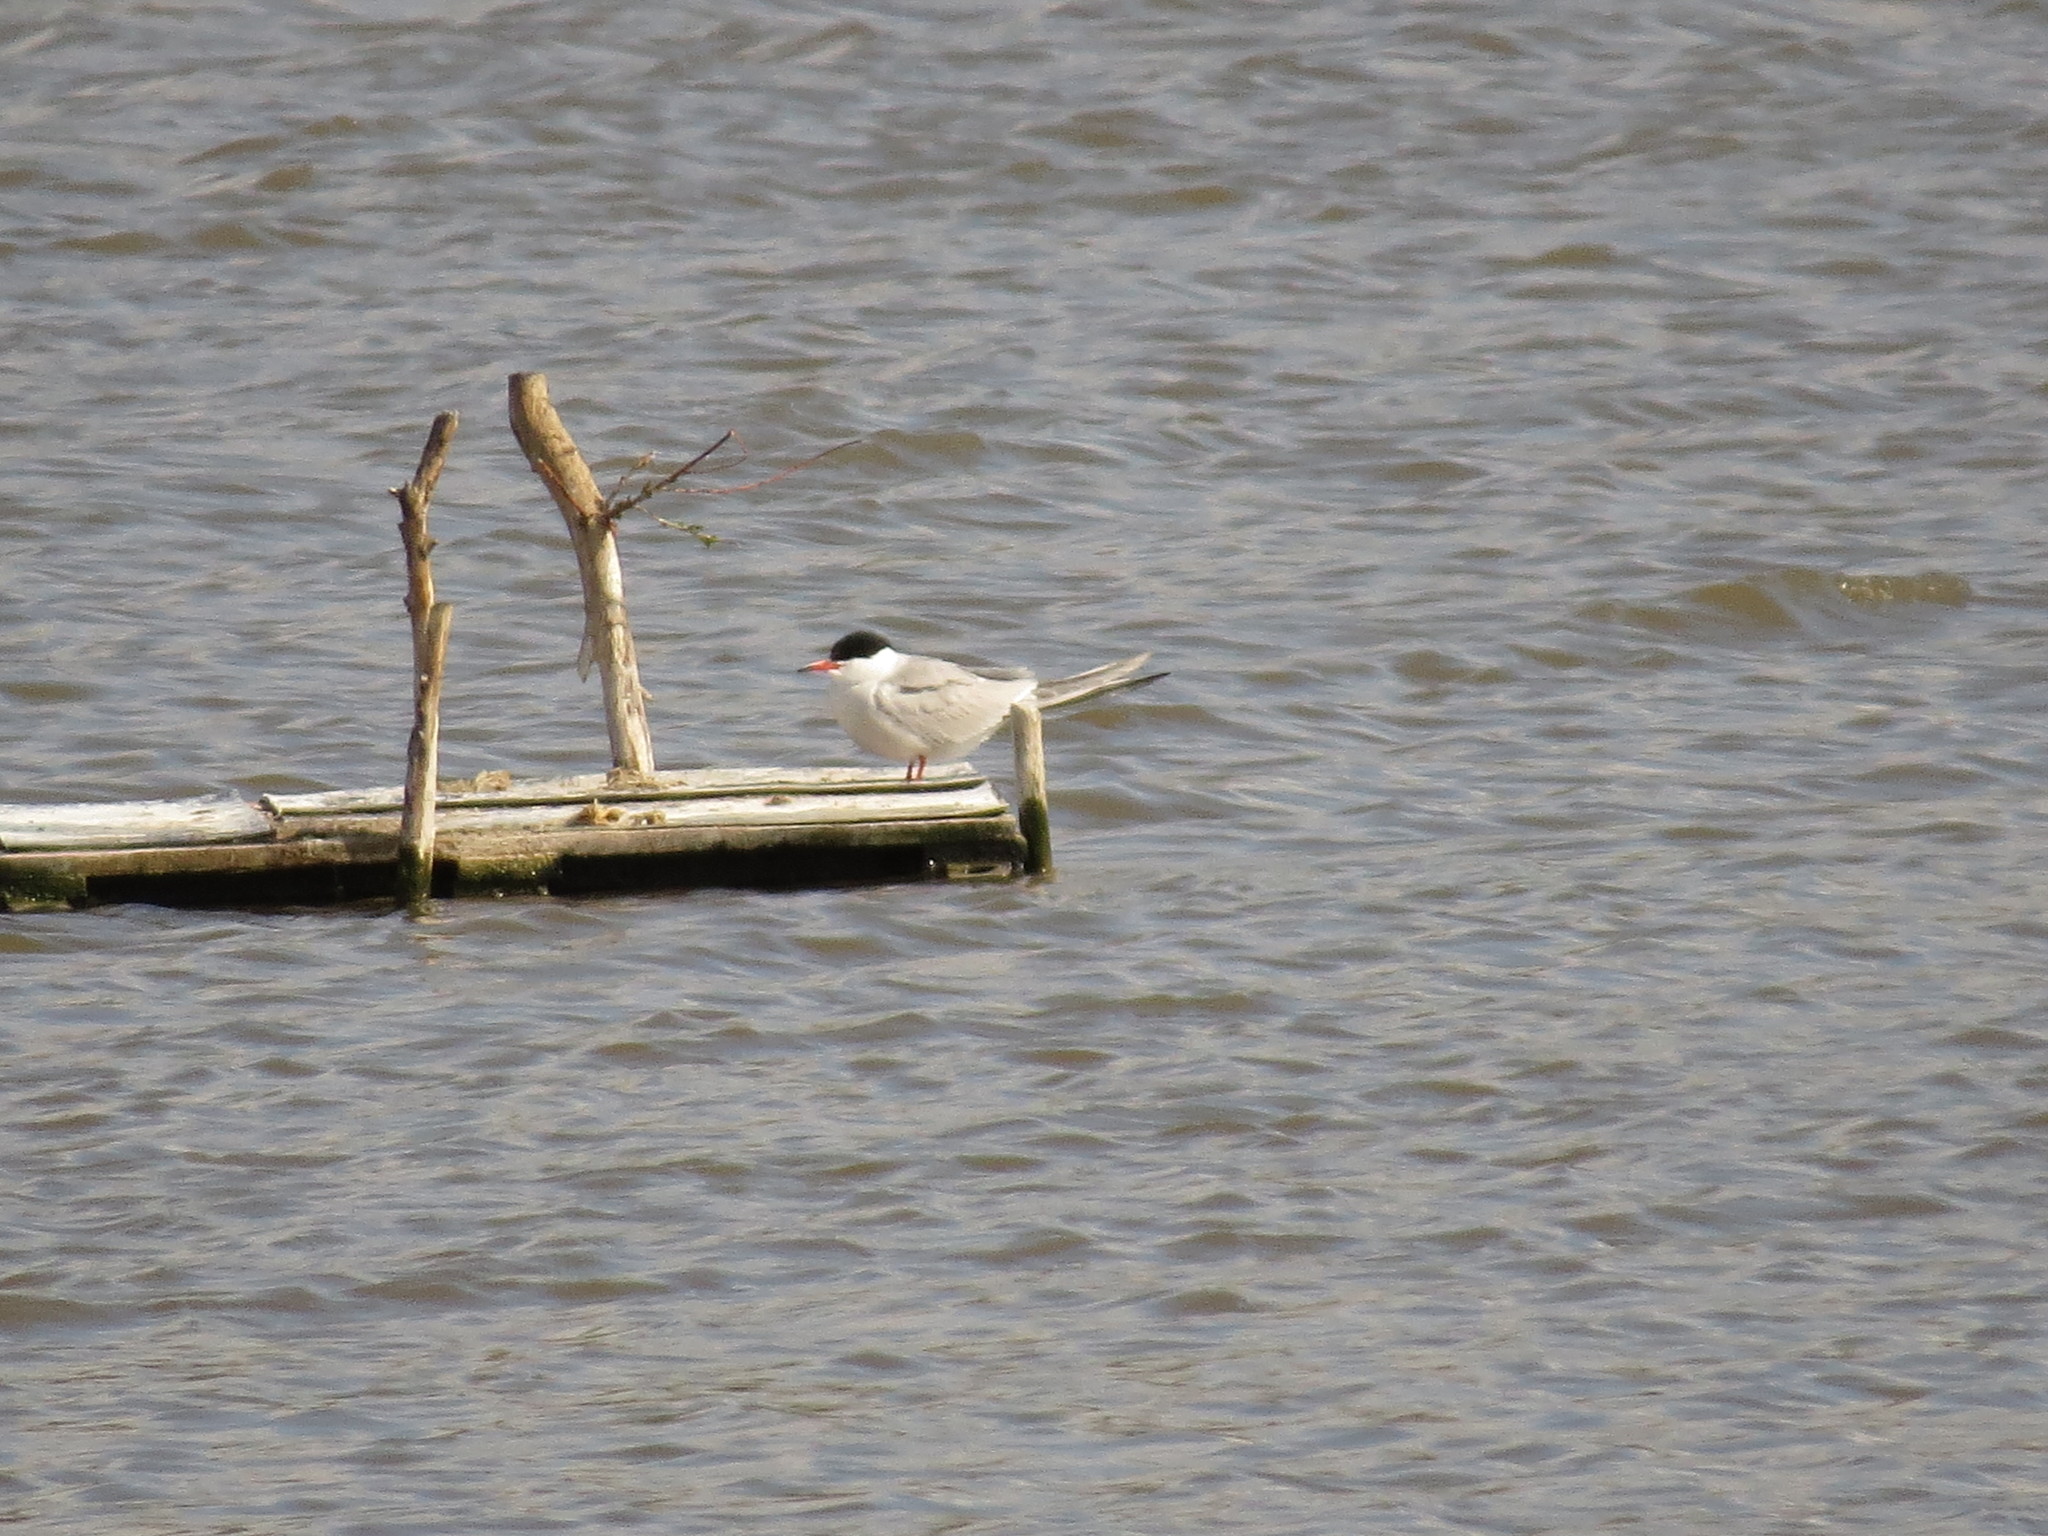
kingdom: Animalia
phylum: Chordata
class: Aves
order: Charadriiformes
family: Laridae
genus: Sterna
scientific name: Sterna hirundo
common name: Common tern
